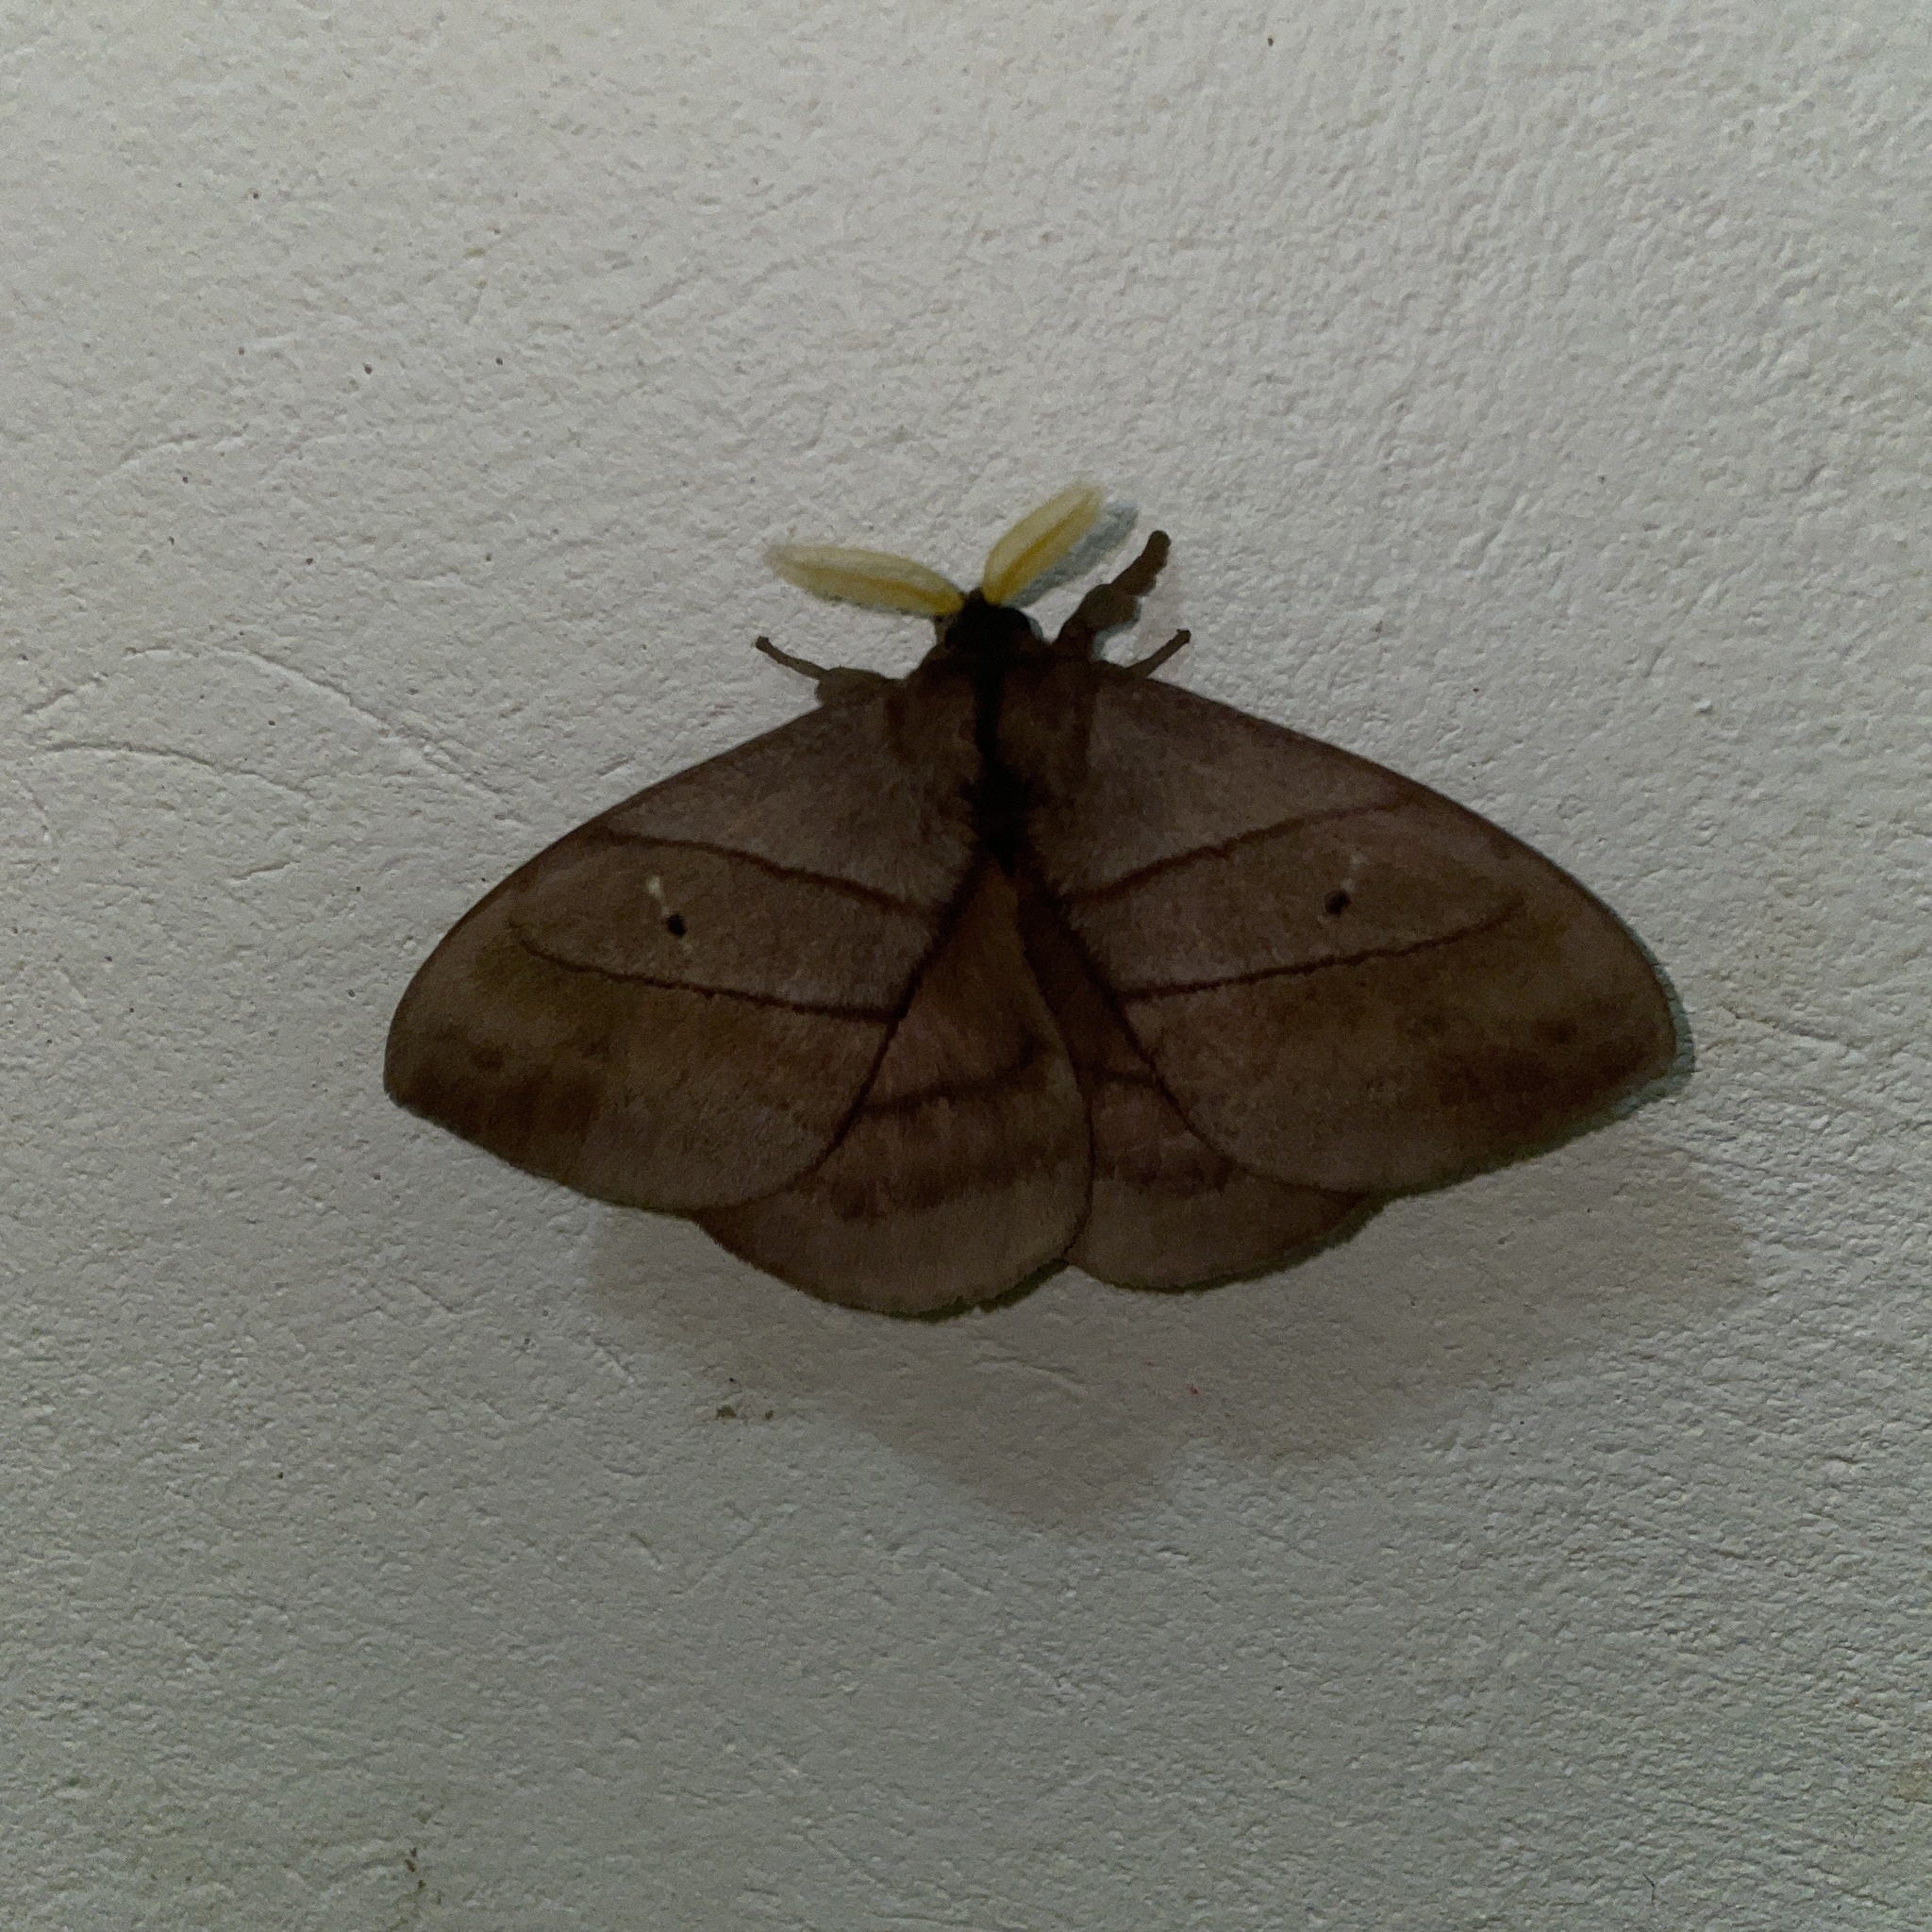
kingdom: Animalia
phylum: Arthropoda
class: Insecta
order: Lepidoptera
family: Saturniidae
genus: Periphoba
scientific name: Periphoba augur
